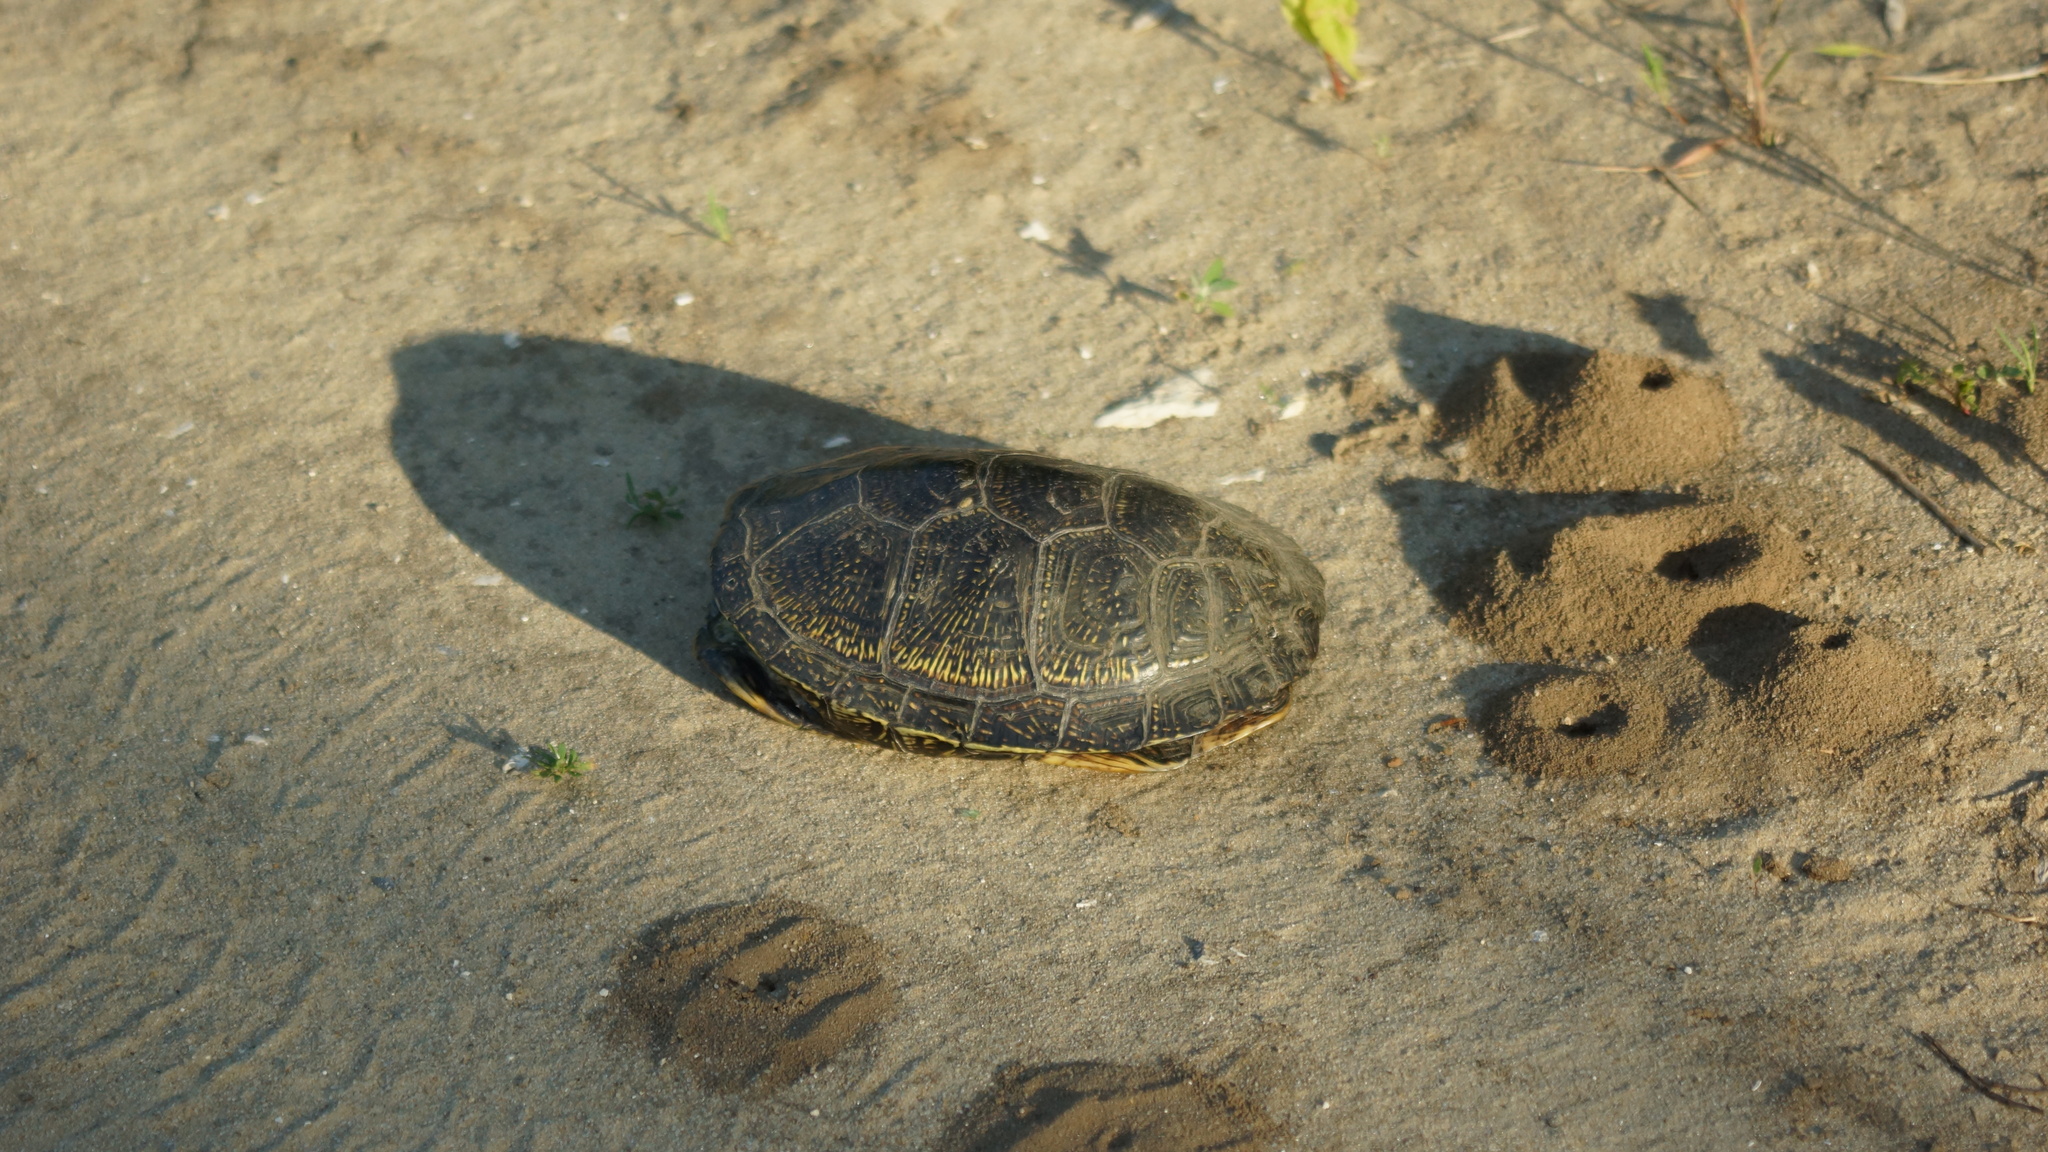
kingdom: Animalia
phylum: Chordata
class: Testudines
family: Emydidae
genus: Emys
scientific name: Emys orbicularis
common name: European pond turtle
